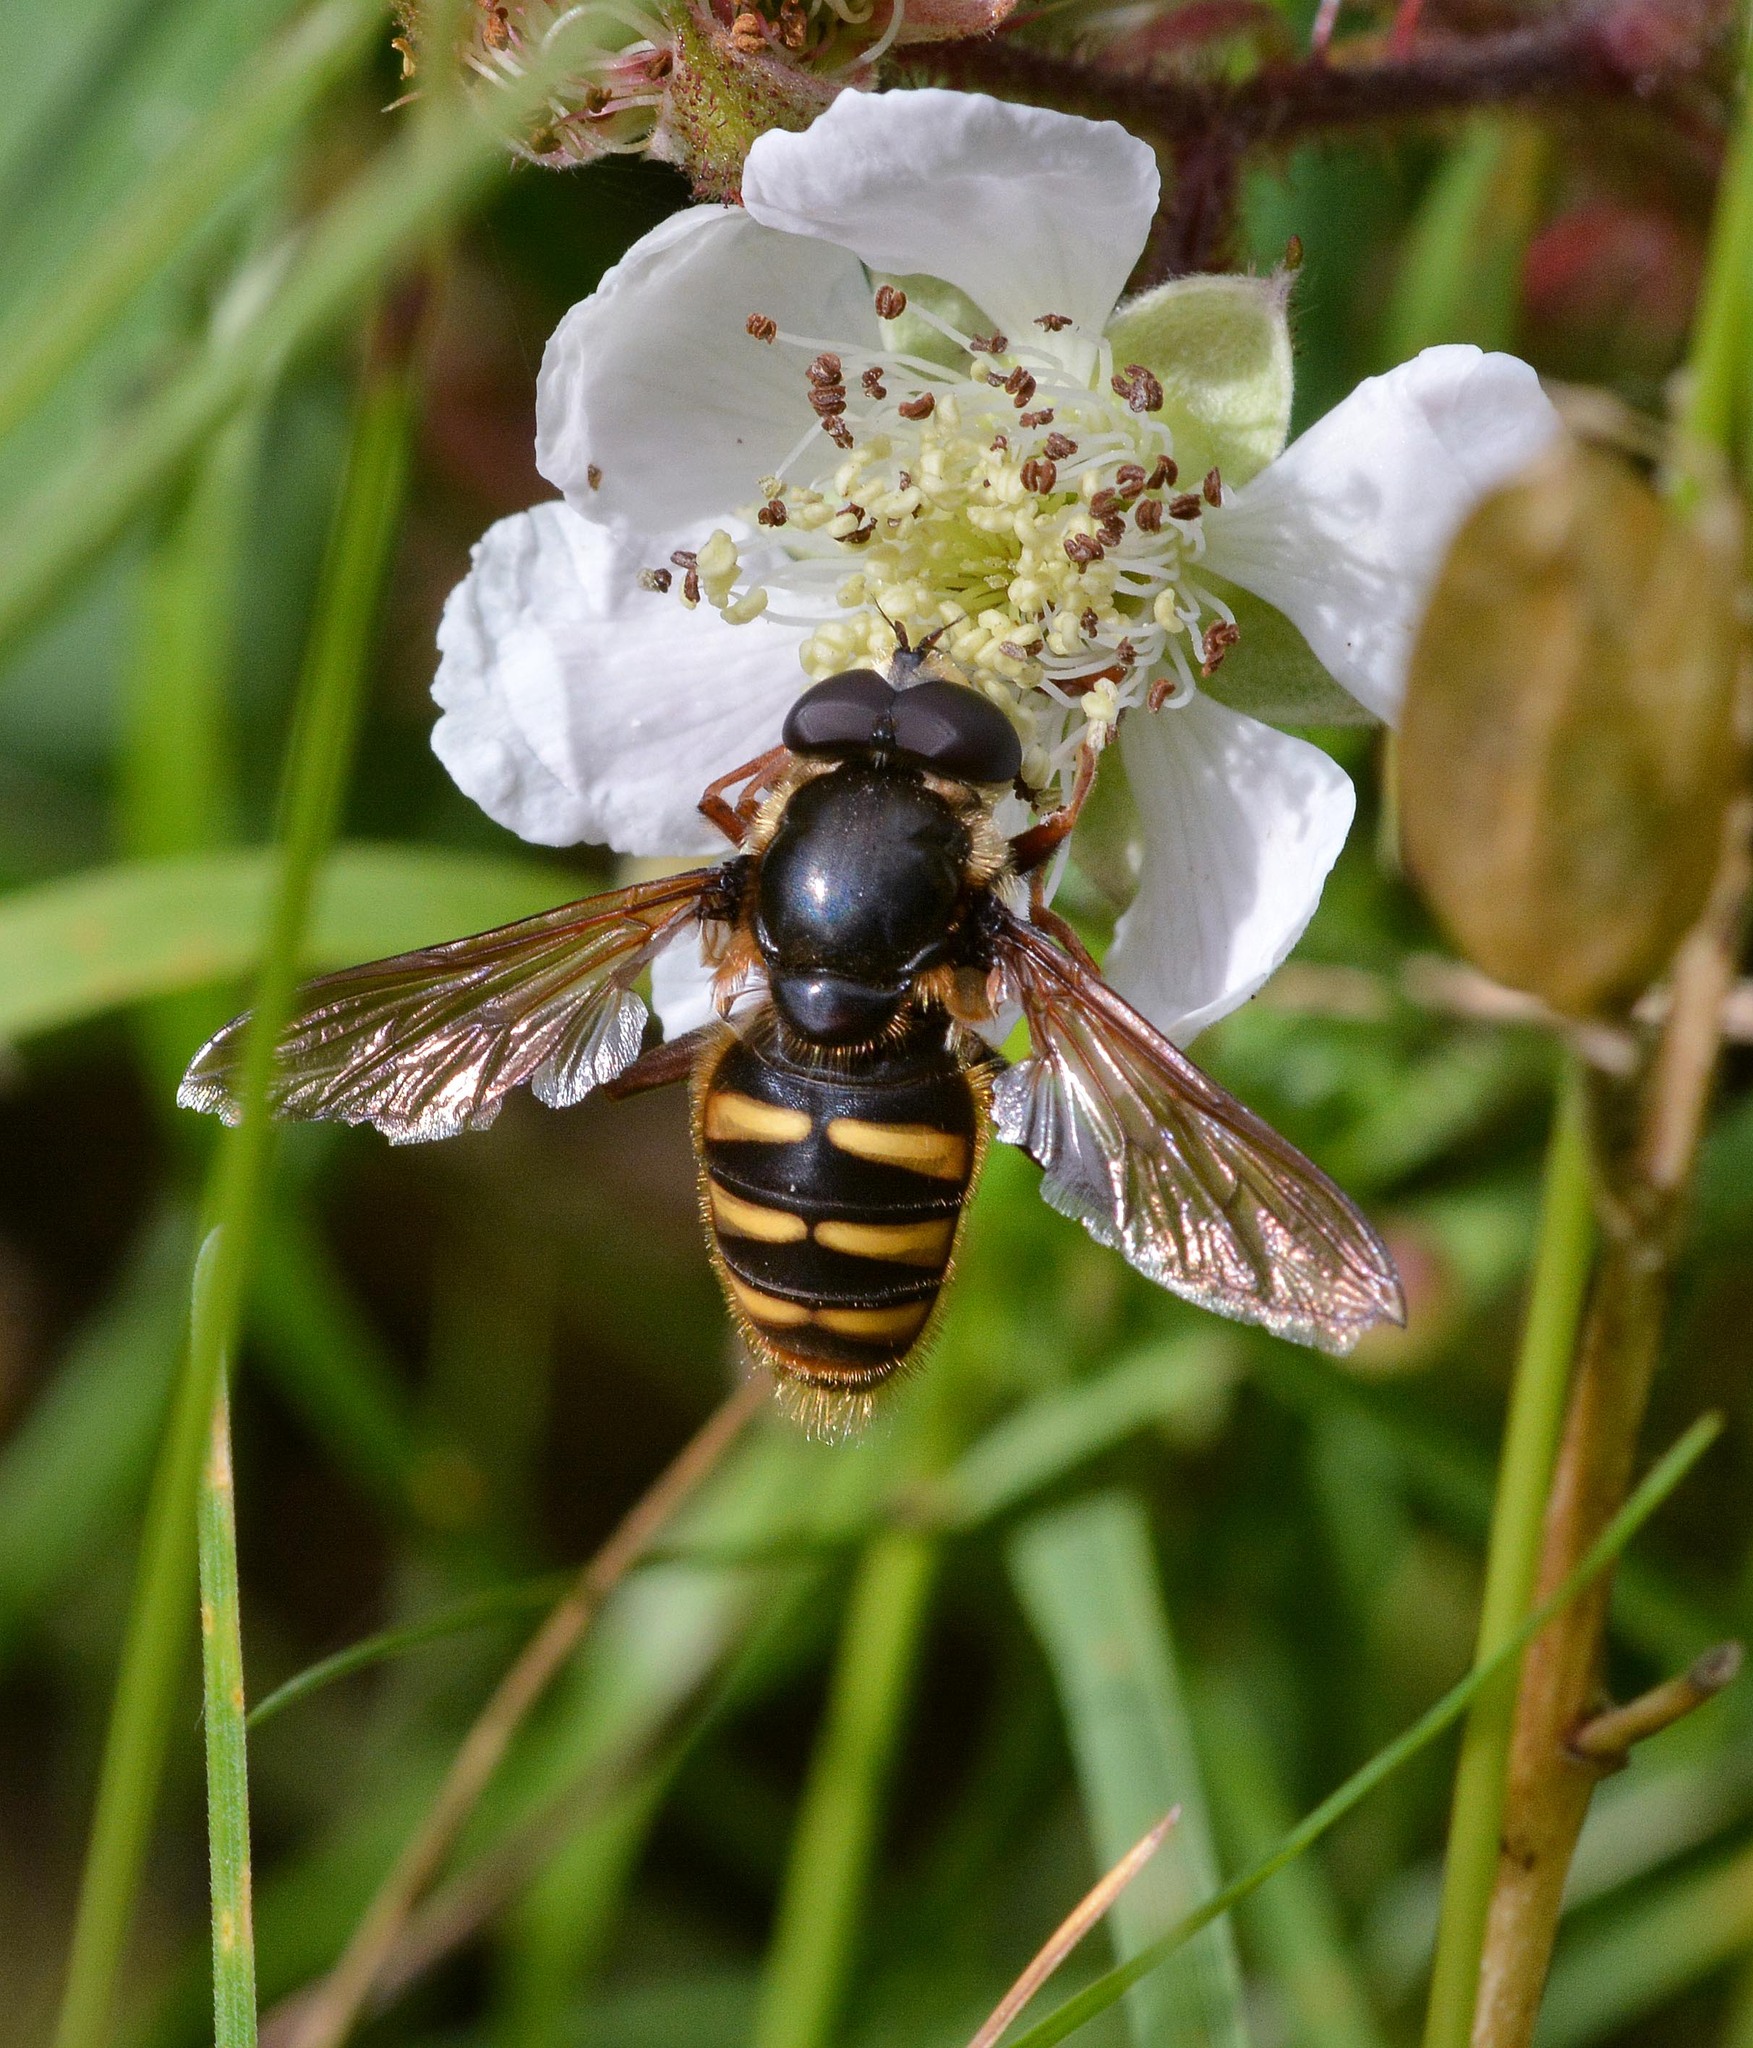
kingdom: Animalia
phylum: Arthropoda
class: Insecta
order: Diptera
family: Syrphidae
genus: Sericomyia
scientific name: Sericomyia silentis
